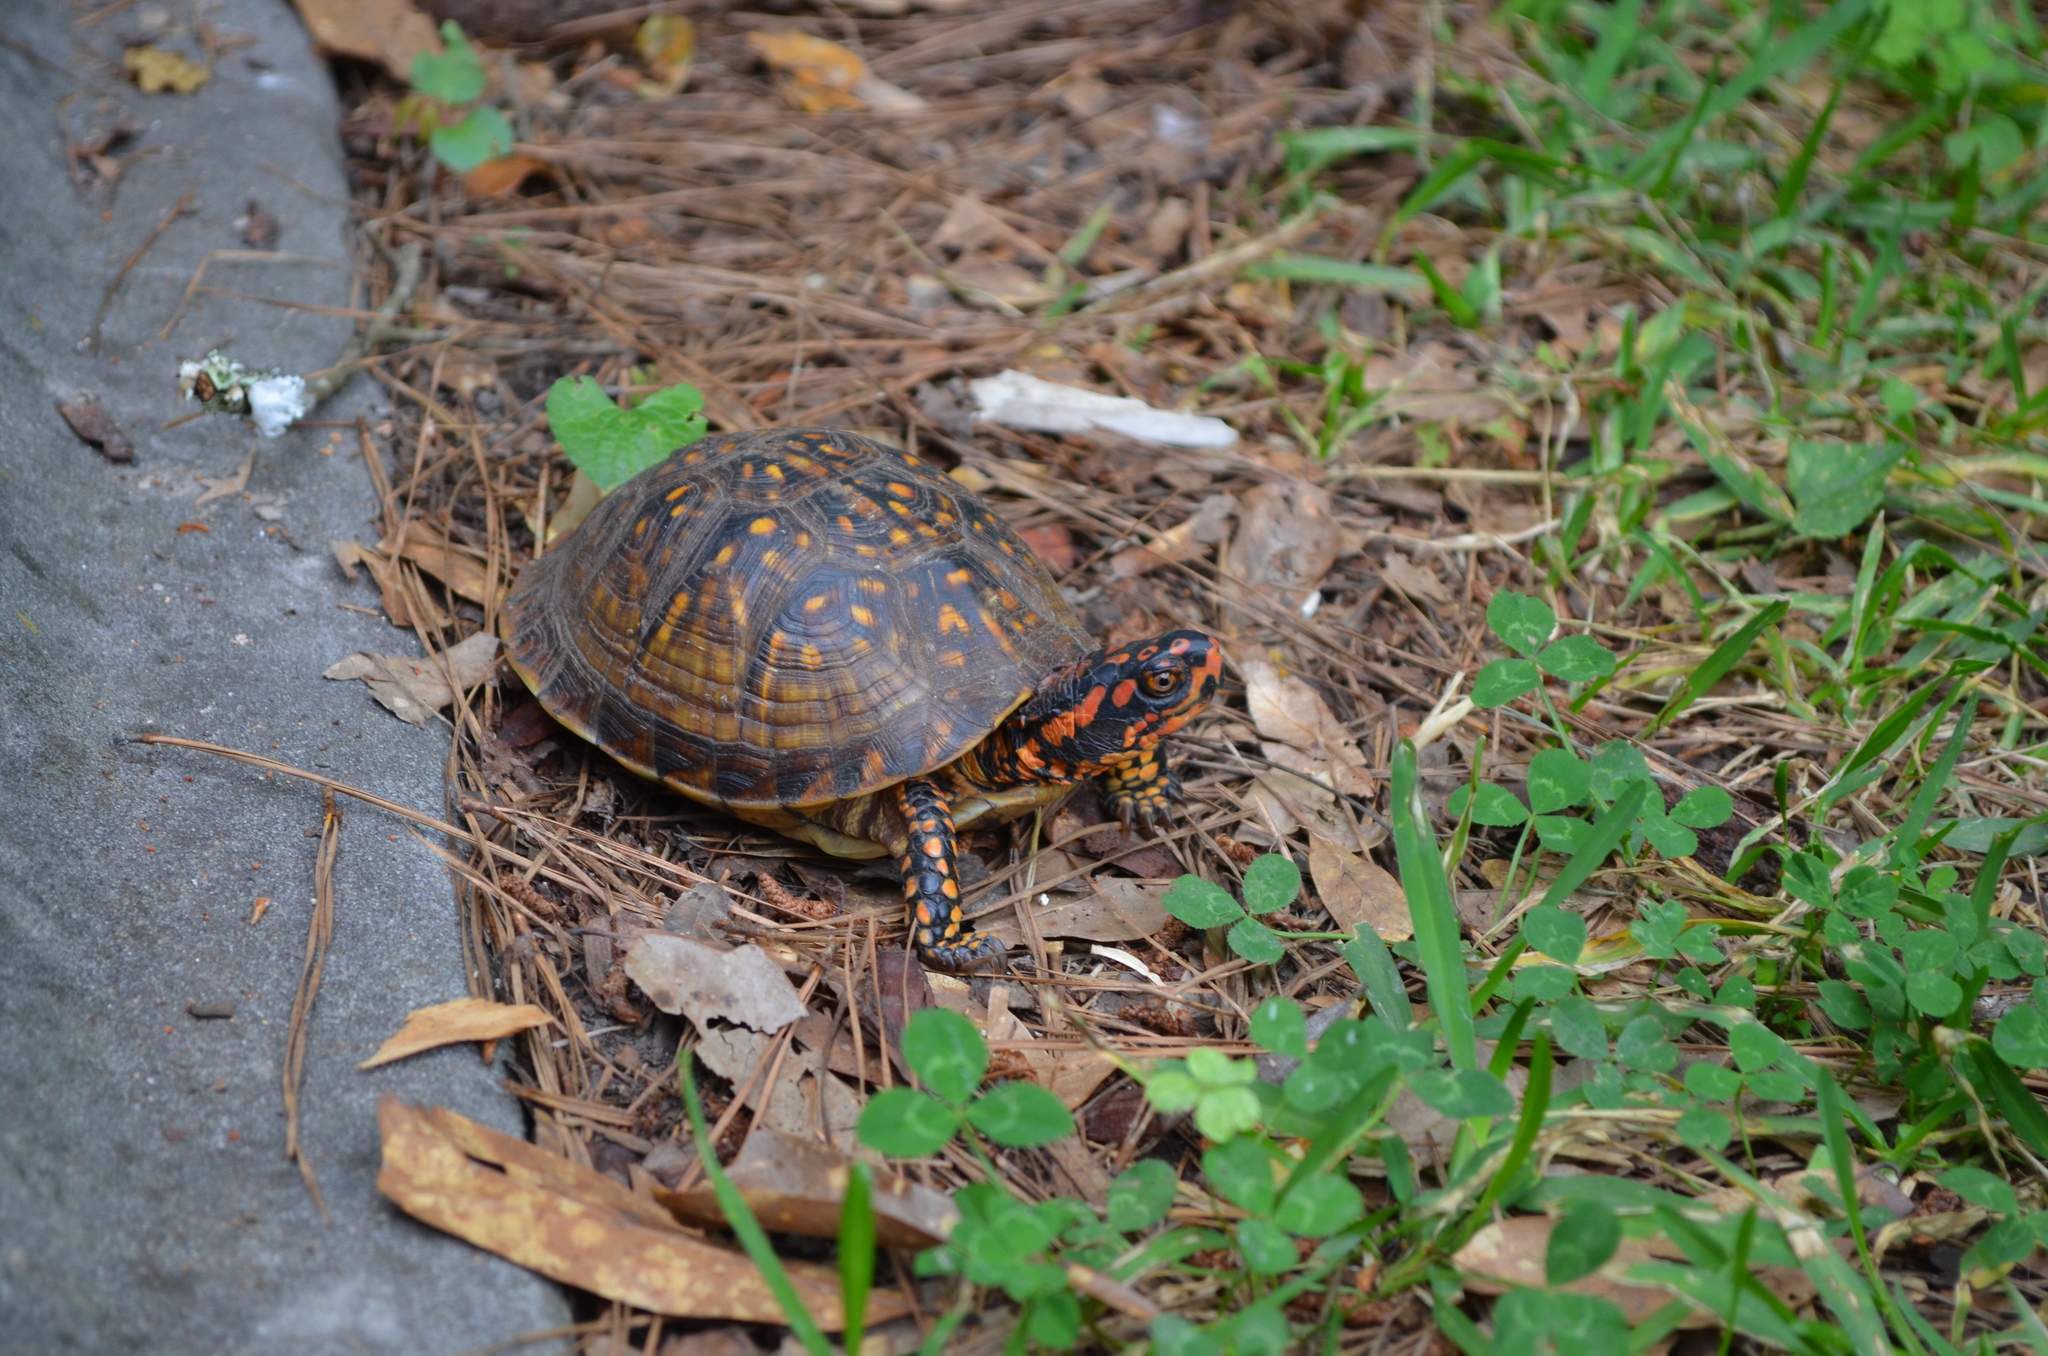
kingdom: Animalia
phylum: Chordata
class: Testudines
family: Emydidae
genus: Terrapene
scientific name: Terrapene carolina
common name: Common box turtle
